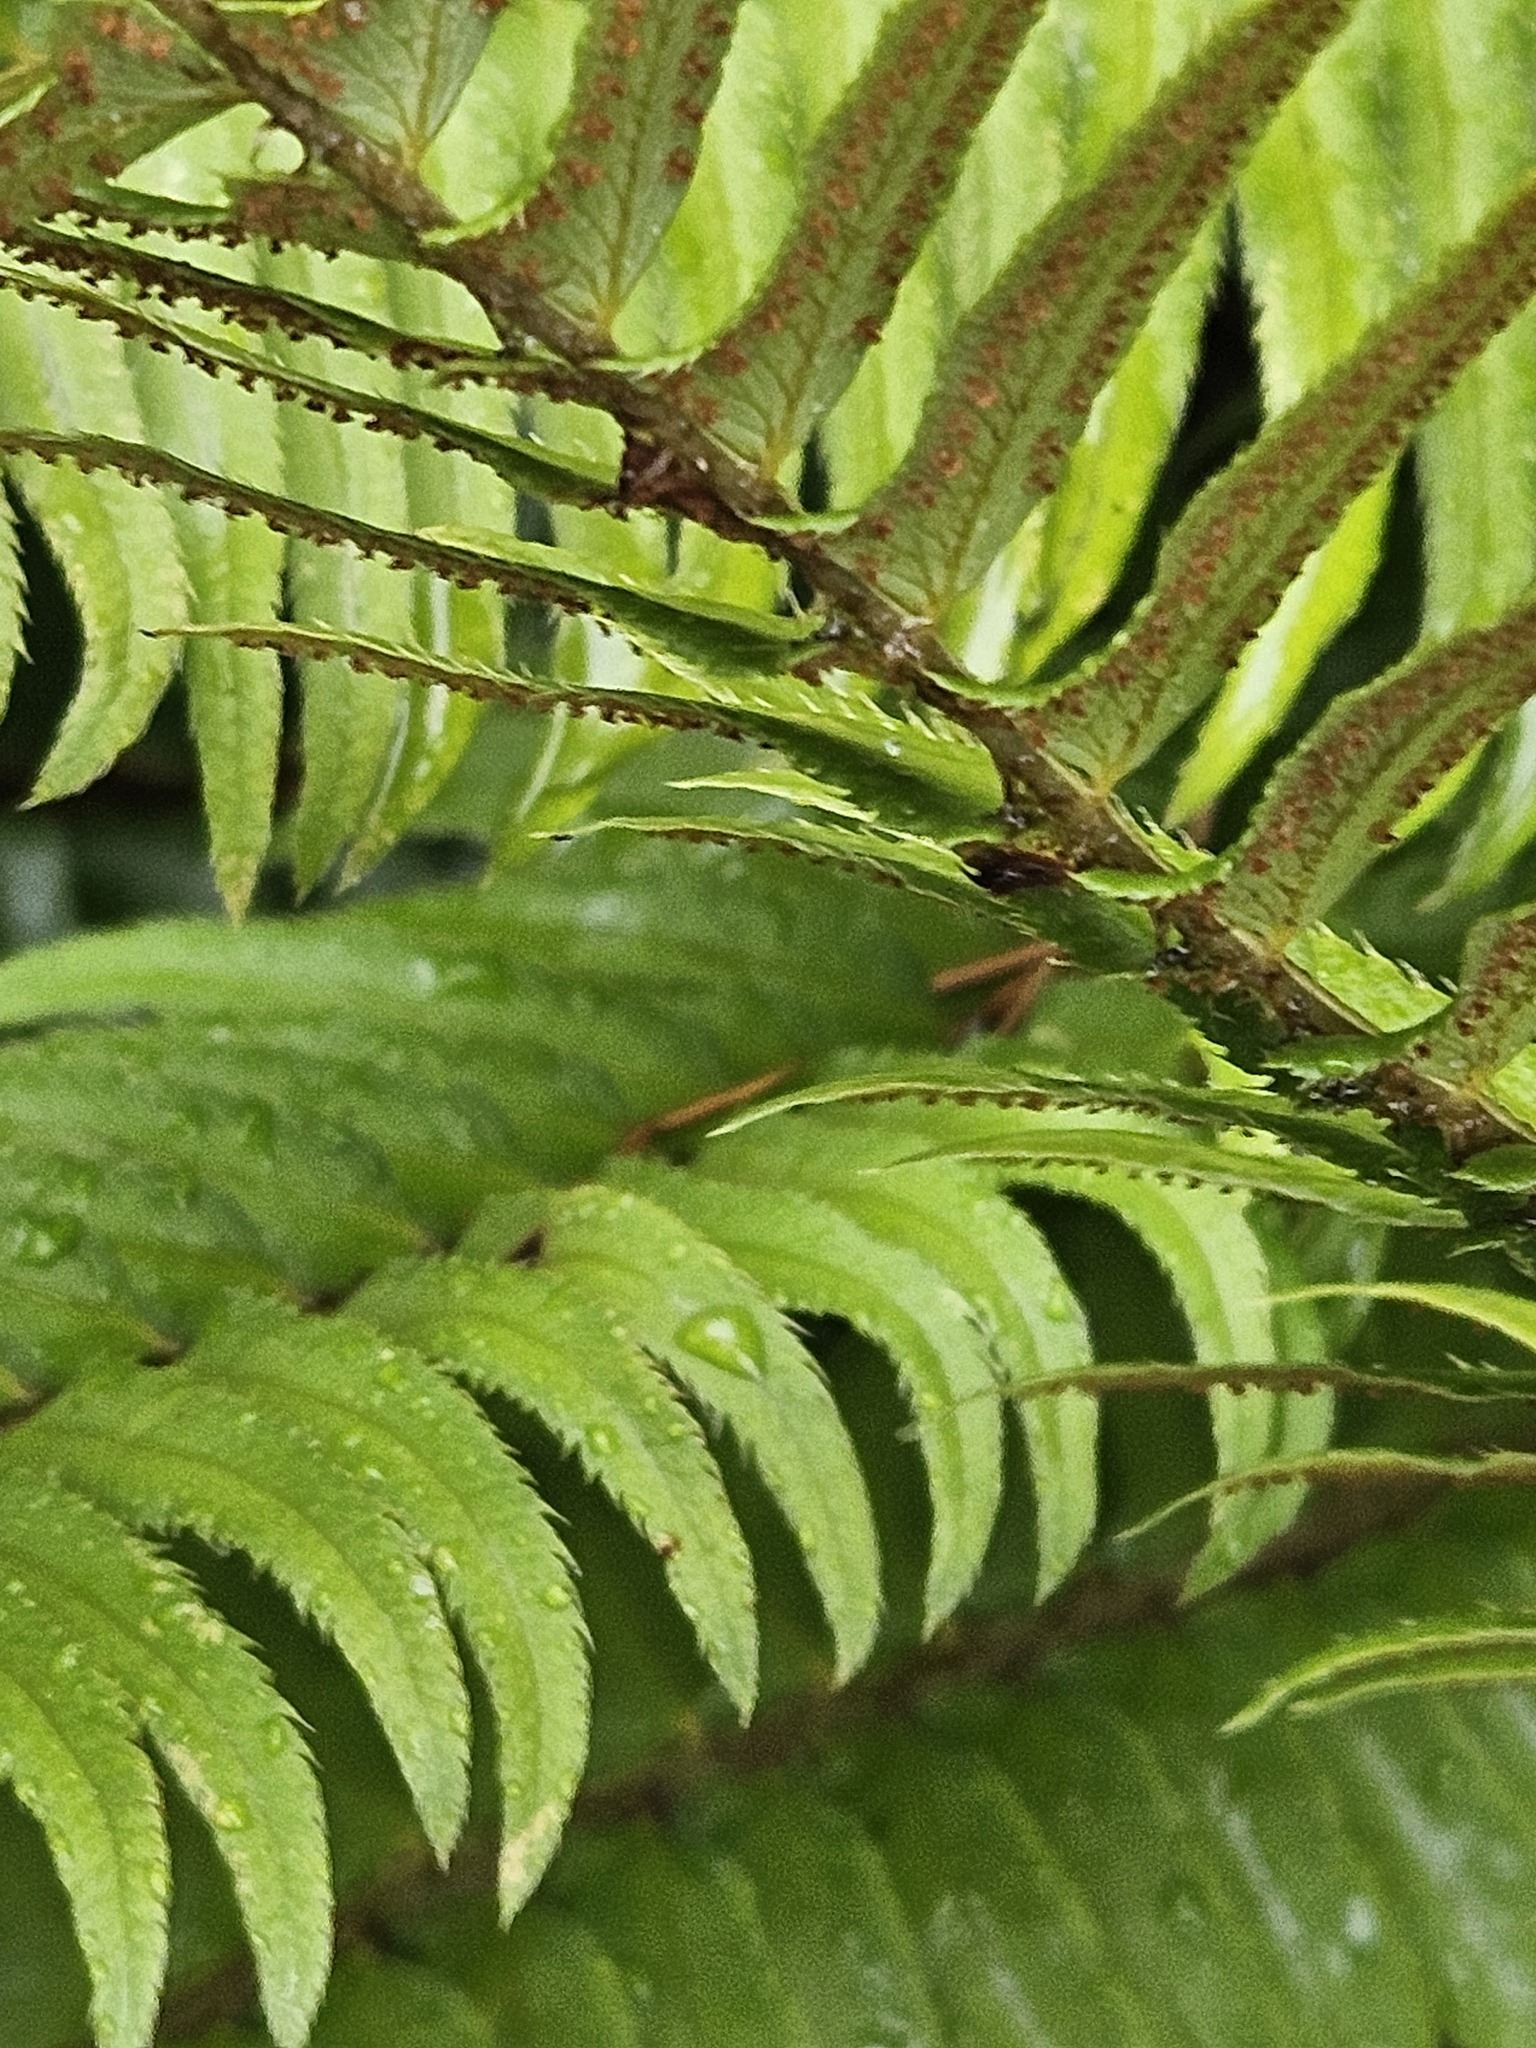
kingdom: Plantae
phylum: Tracheophyta
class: Polypodiopsida
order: Polypodiales
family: Dryopteridaceae
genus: Polystichum
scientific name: Polystichum munitum
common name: Western sword-fern
